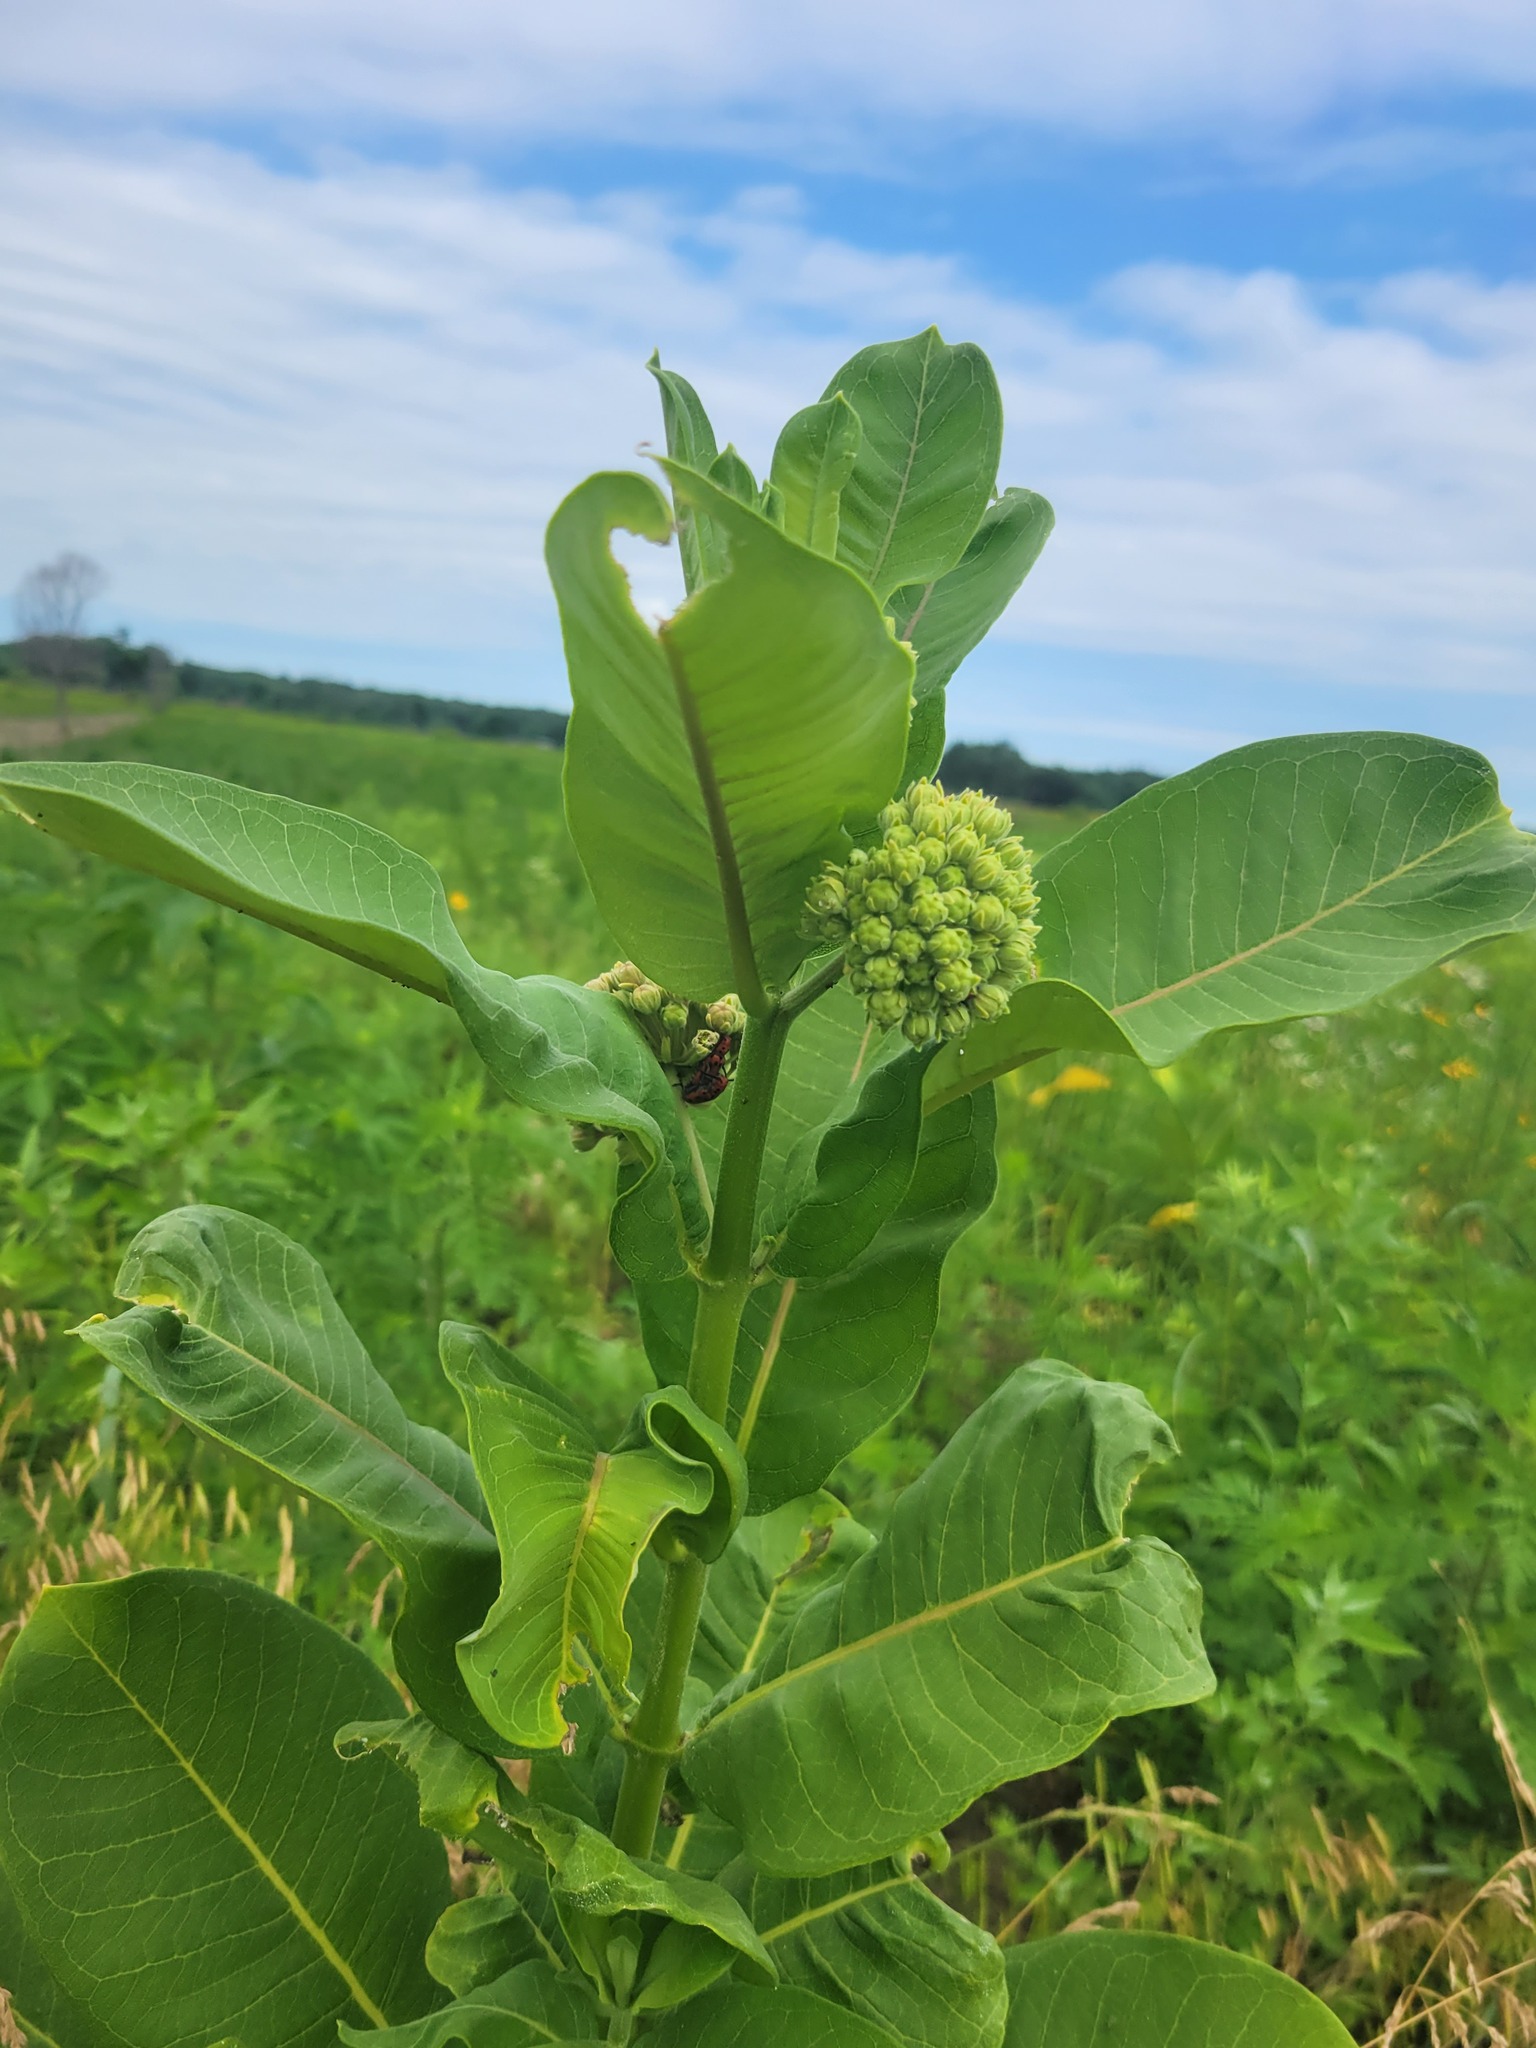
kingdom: Animalia
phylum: Arthropoda
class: Insecta
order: Coleoptera
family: Cerambycidae
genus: Tetraopes
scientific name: Tetraopes tetrophthalmus
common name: Red milkweed beetle
